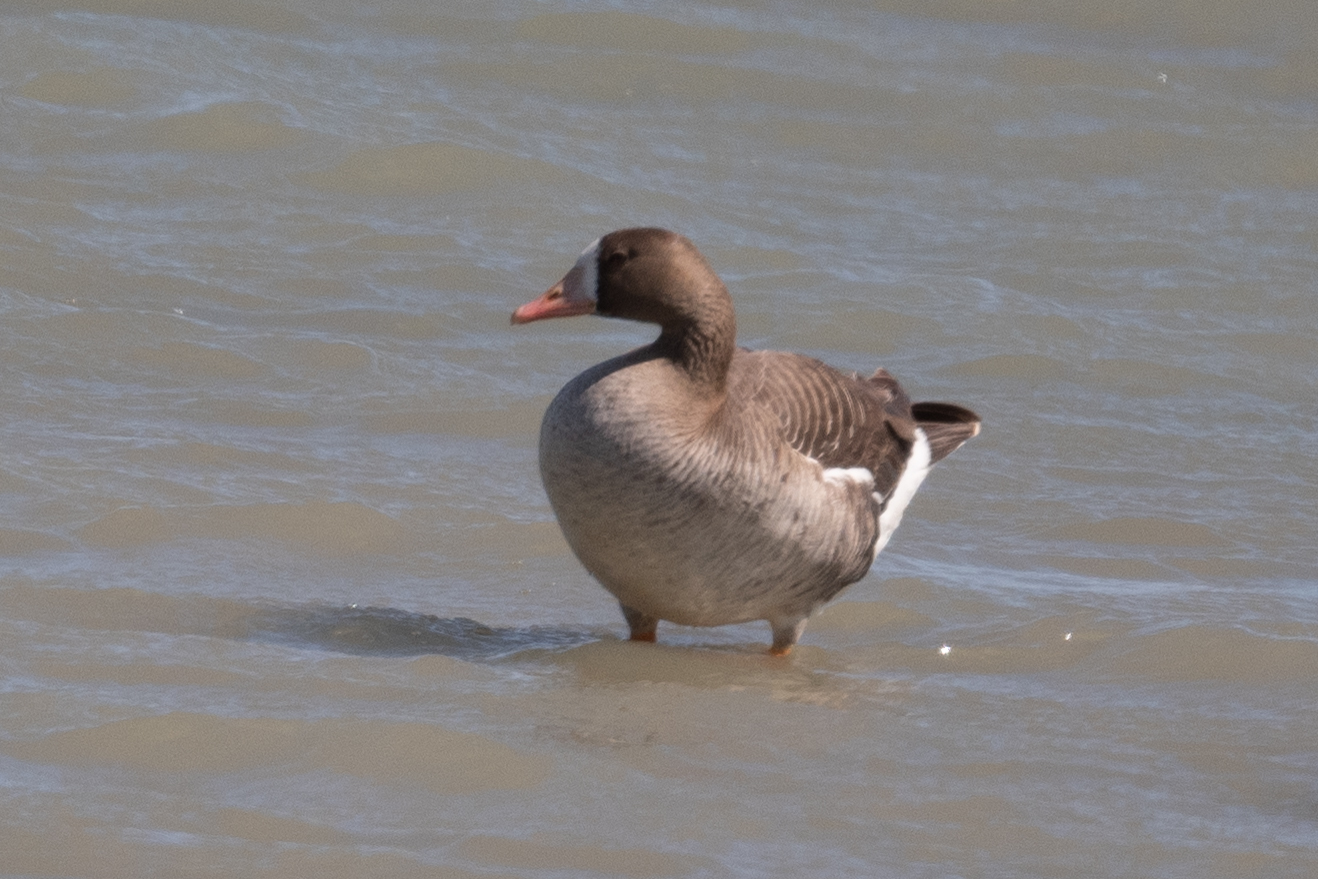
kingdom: Animalia
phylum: Chordata
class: Aves
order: Anseriformes
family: Anatidae
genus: Anser
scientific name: Anser albifrons
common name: Greater white-fronted goose
